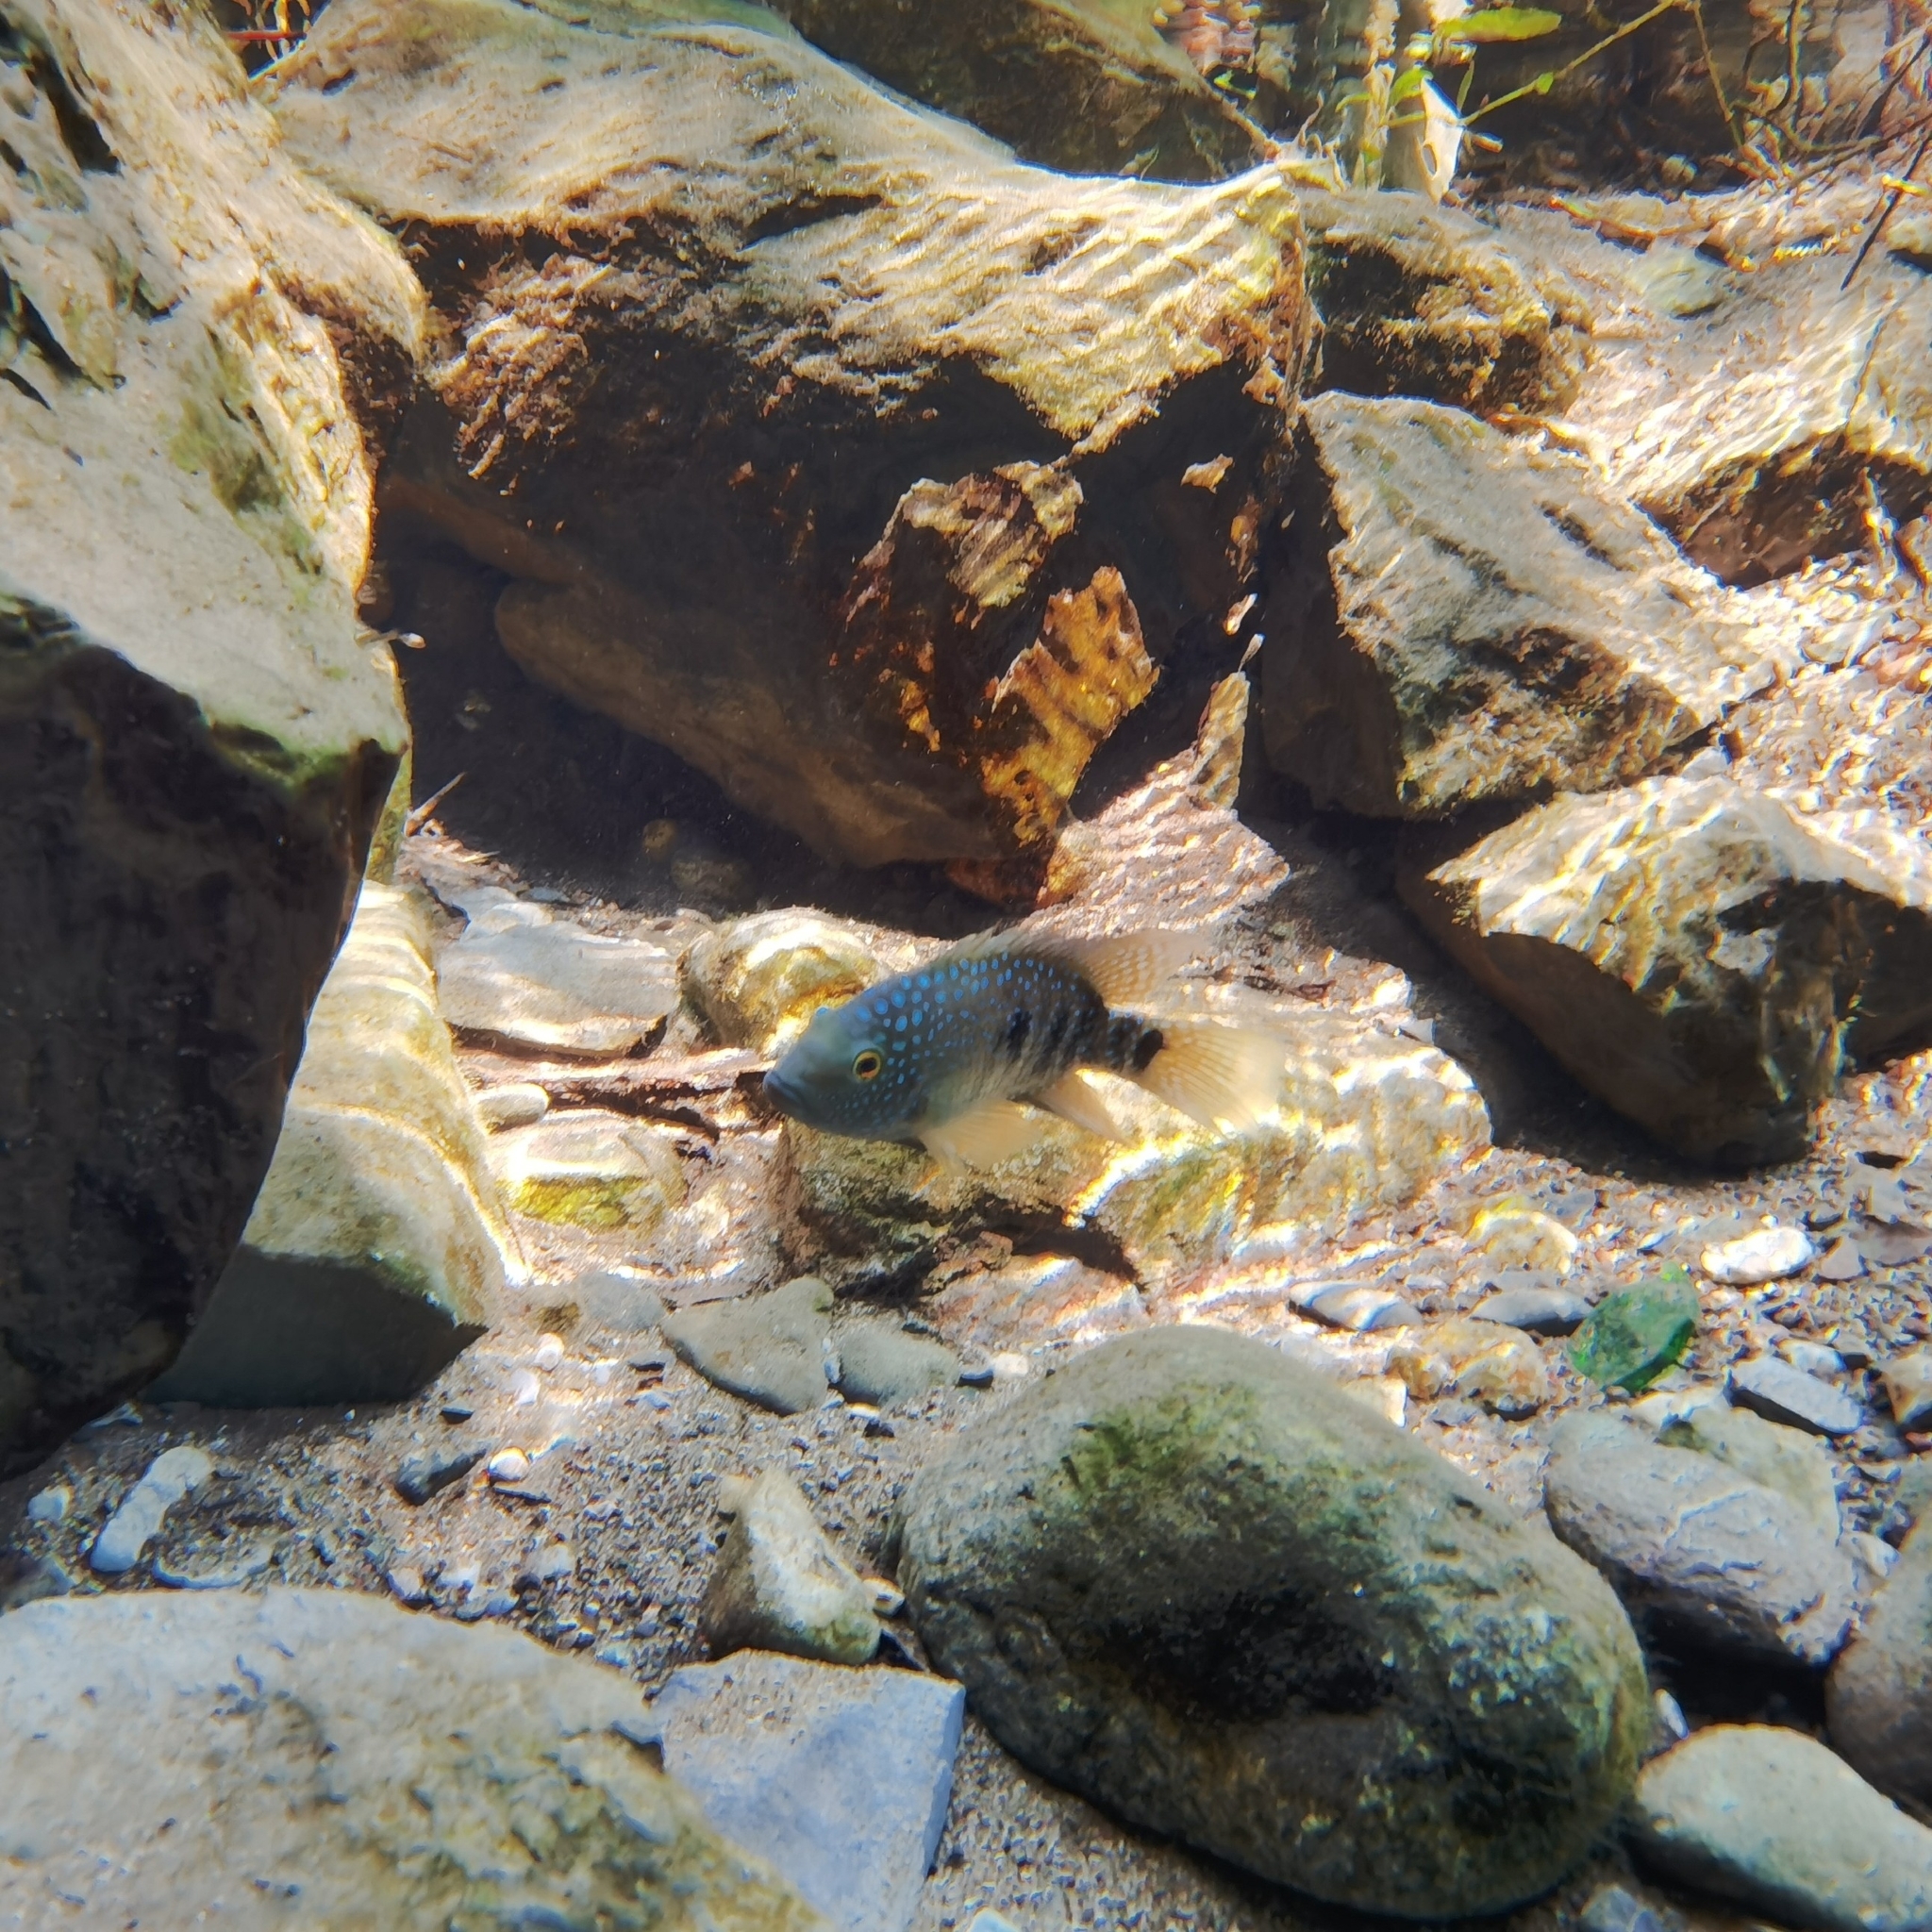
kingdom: Animalia
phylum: Chordata
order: Perciformes
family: Cichlidae
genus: Herichthys
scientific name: Herichthys carpintis
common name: Lowland cichlid
